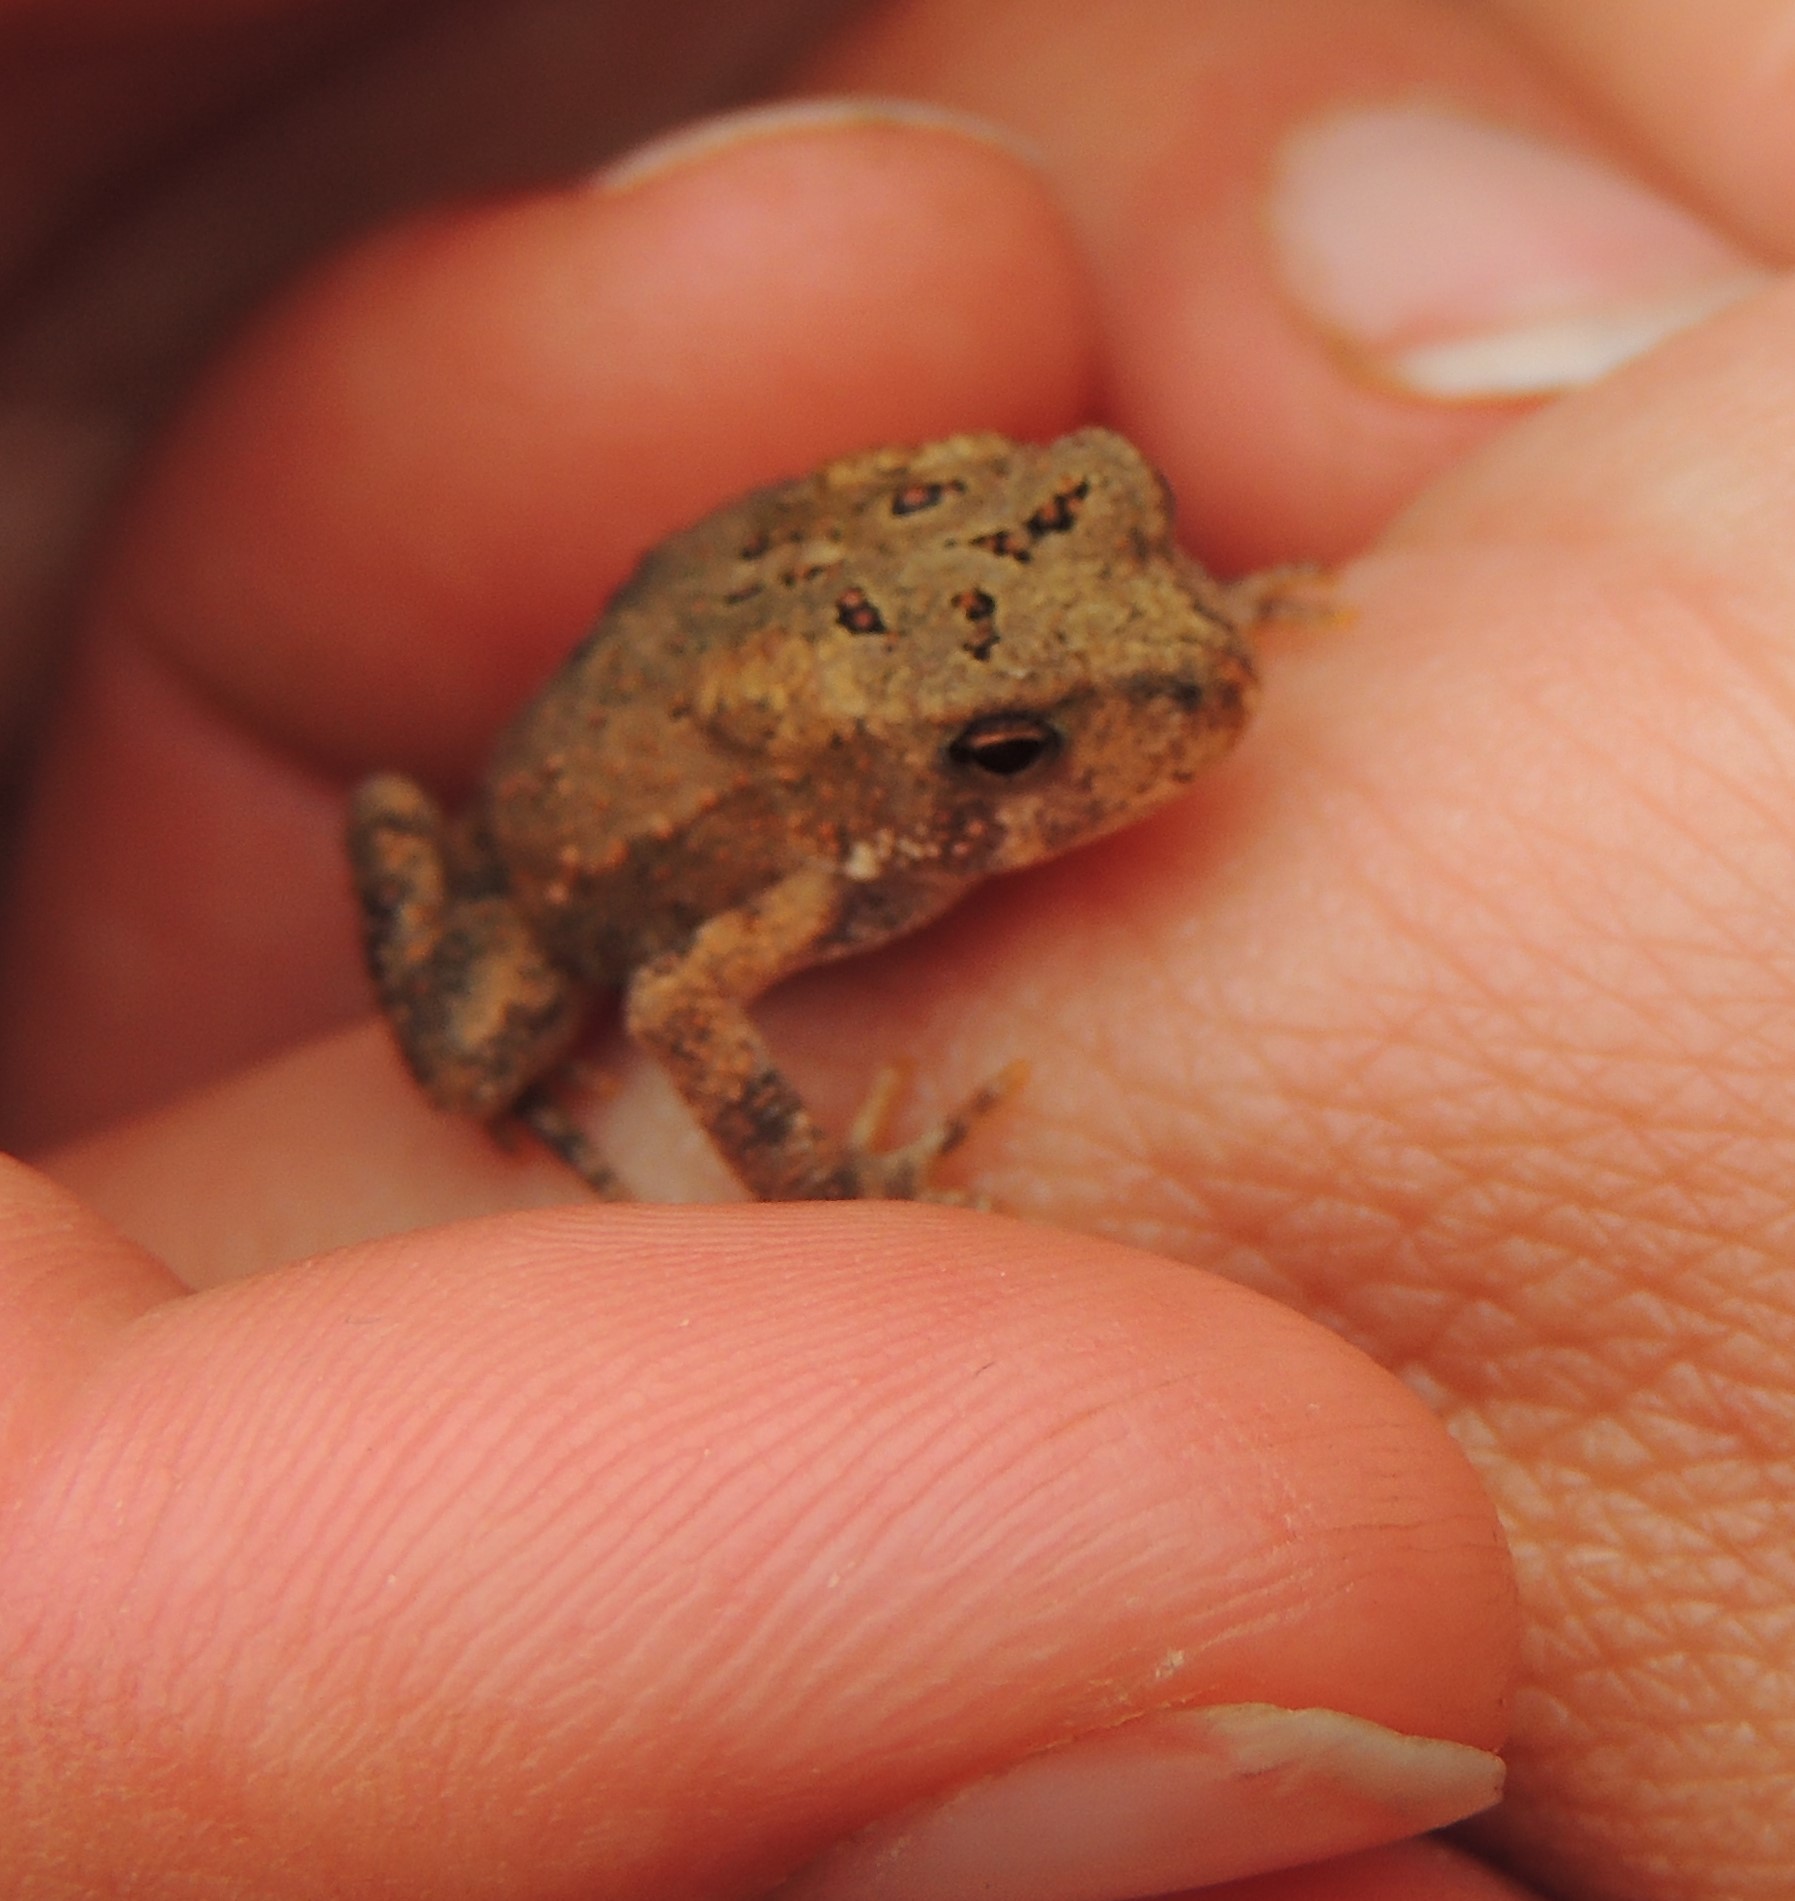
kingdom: Animalia
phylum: Chordata
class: Amphibia
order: Anura
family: Bufonidae
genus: Anaxyrus
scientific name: Anaxyrus americanus
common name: American toad
